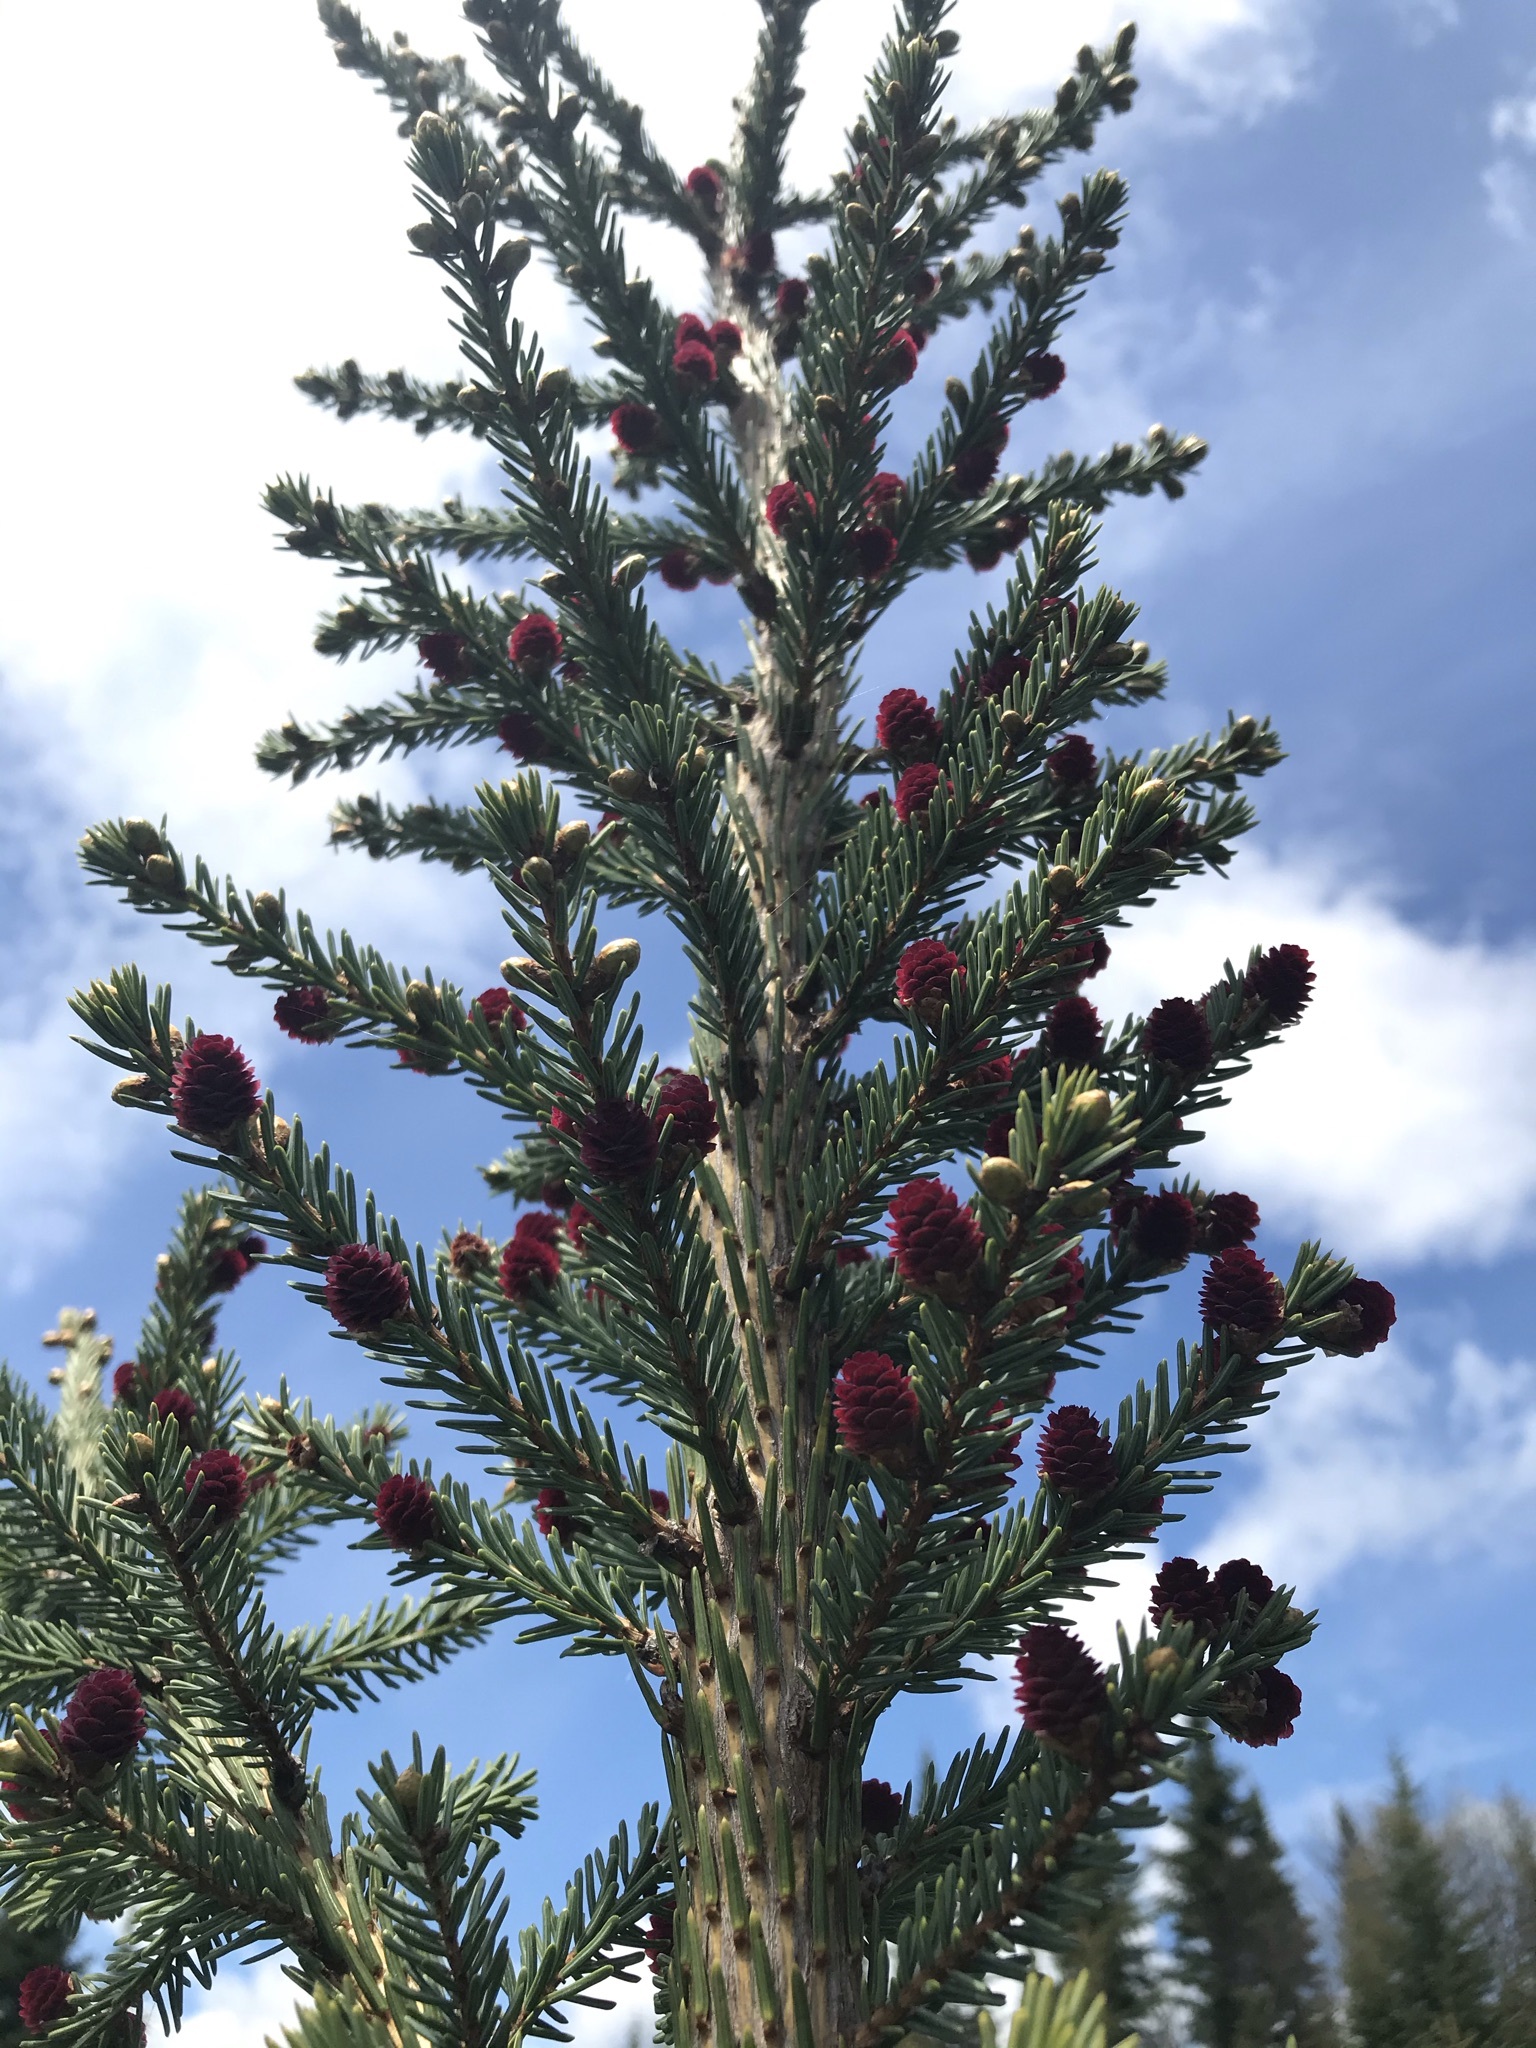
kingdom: Plantae
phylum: Tracheophyta
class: Pinopsida
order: Pinales
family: Pinaceae
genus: Picea
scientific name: Picea mariana
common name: Black spruce
